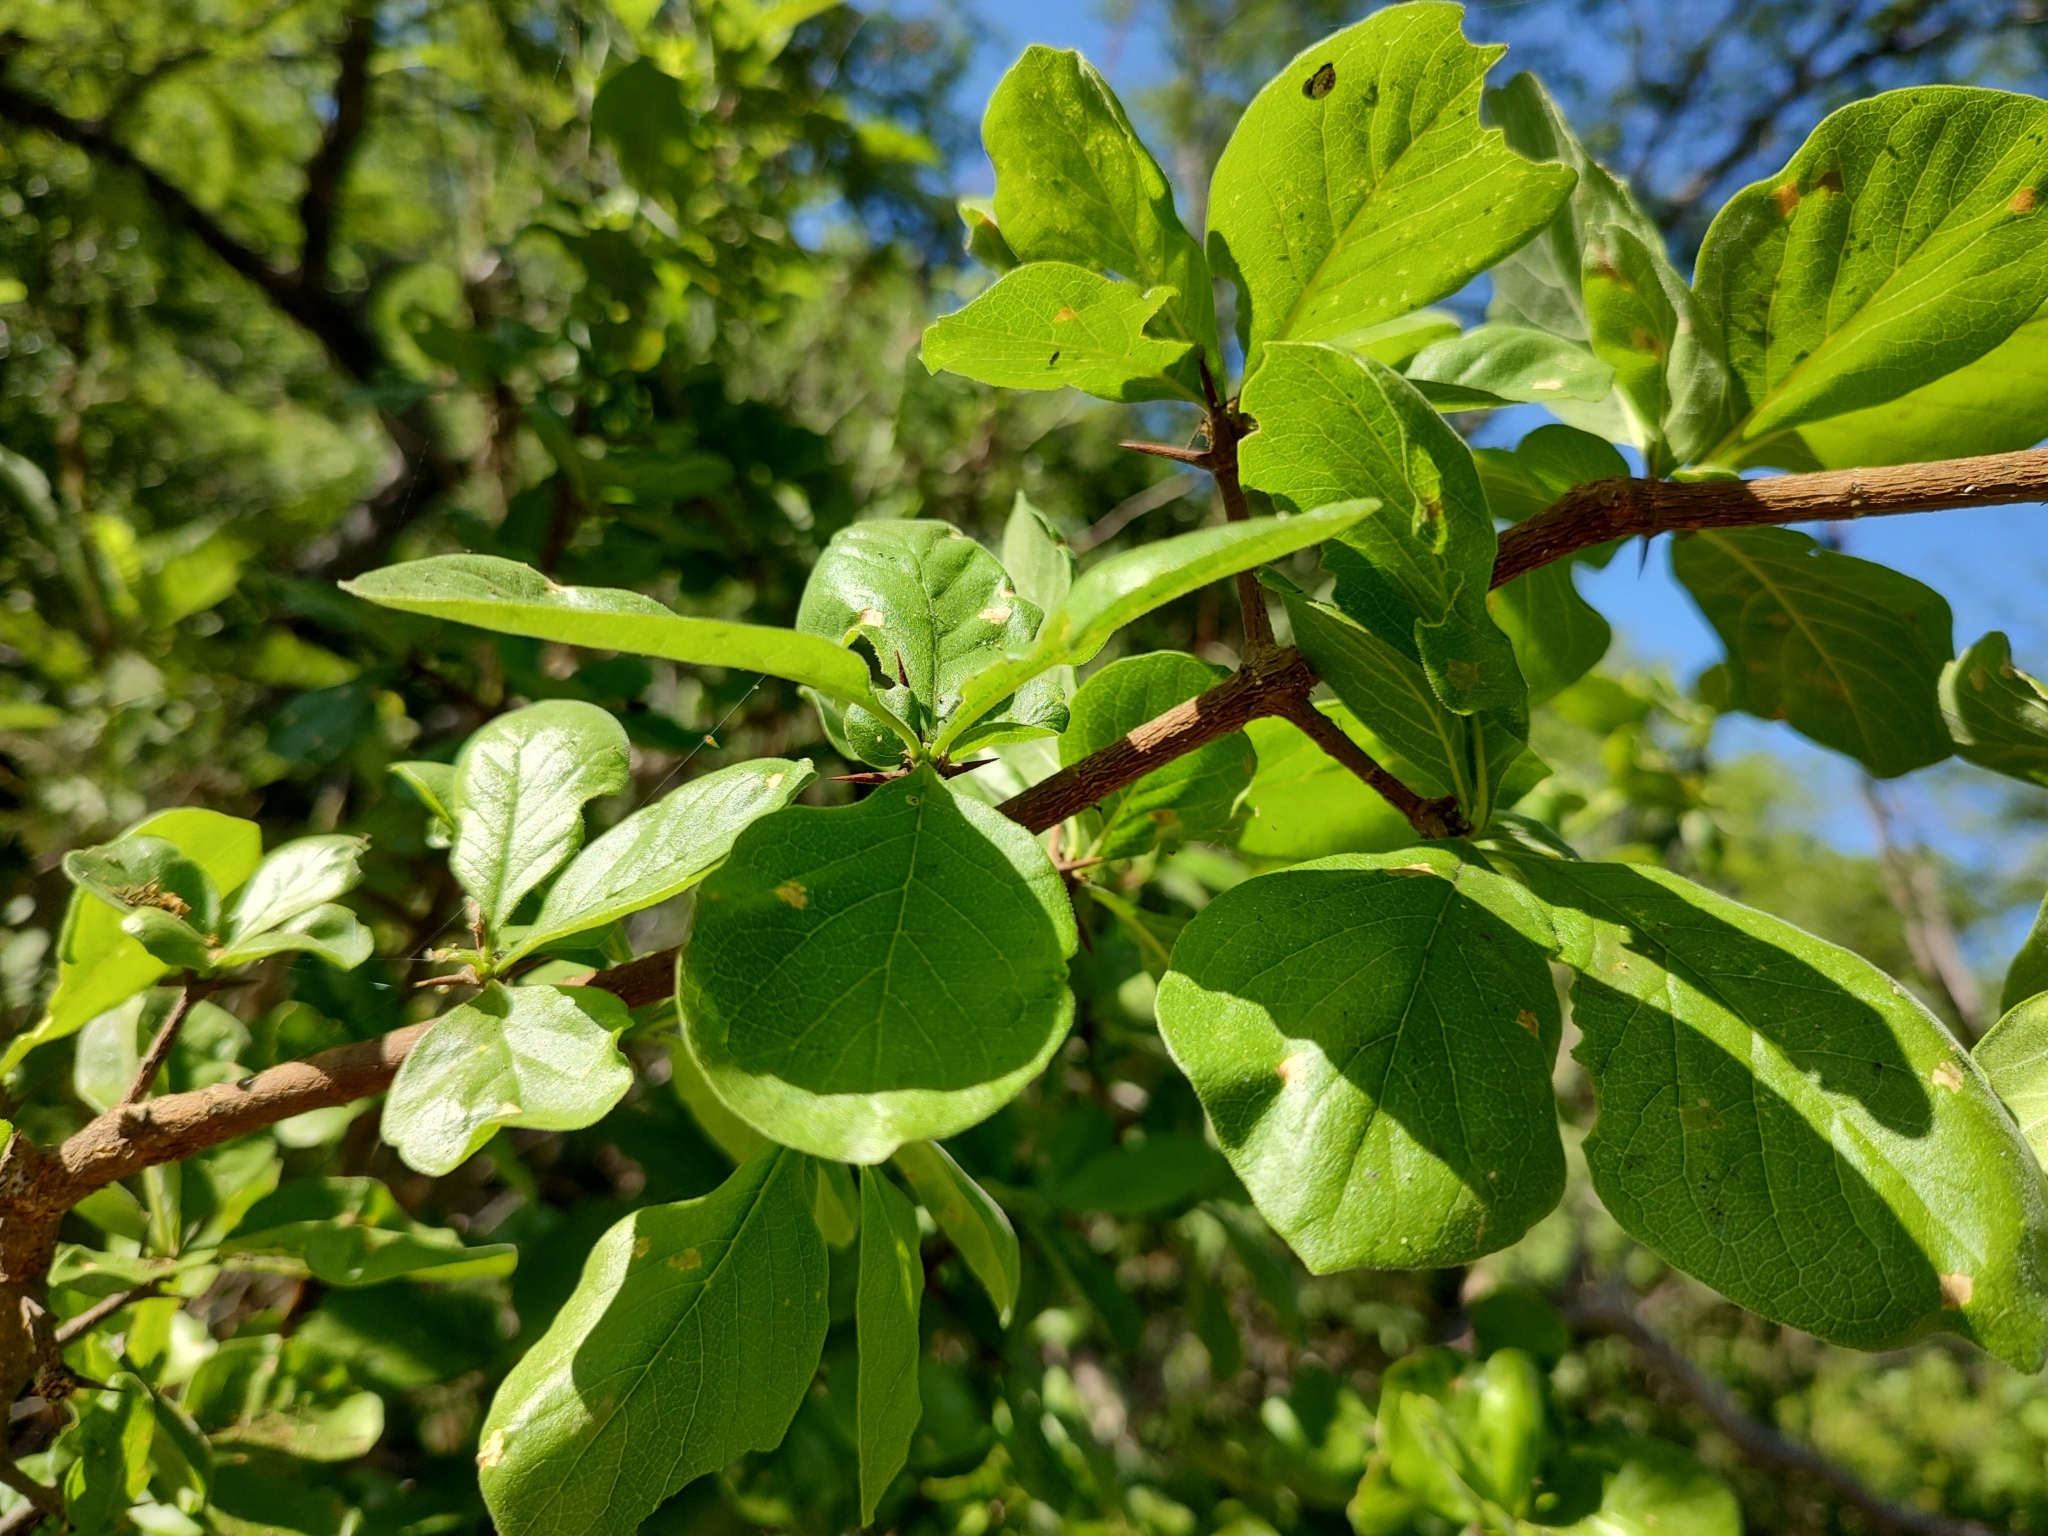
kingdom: Plantae
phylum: Tracheophyta
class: Magnoliopsida
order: Gentianales
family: Rubiaceae
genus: Randia
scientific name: Randia echinocarpa
